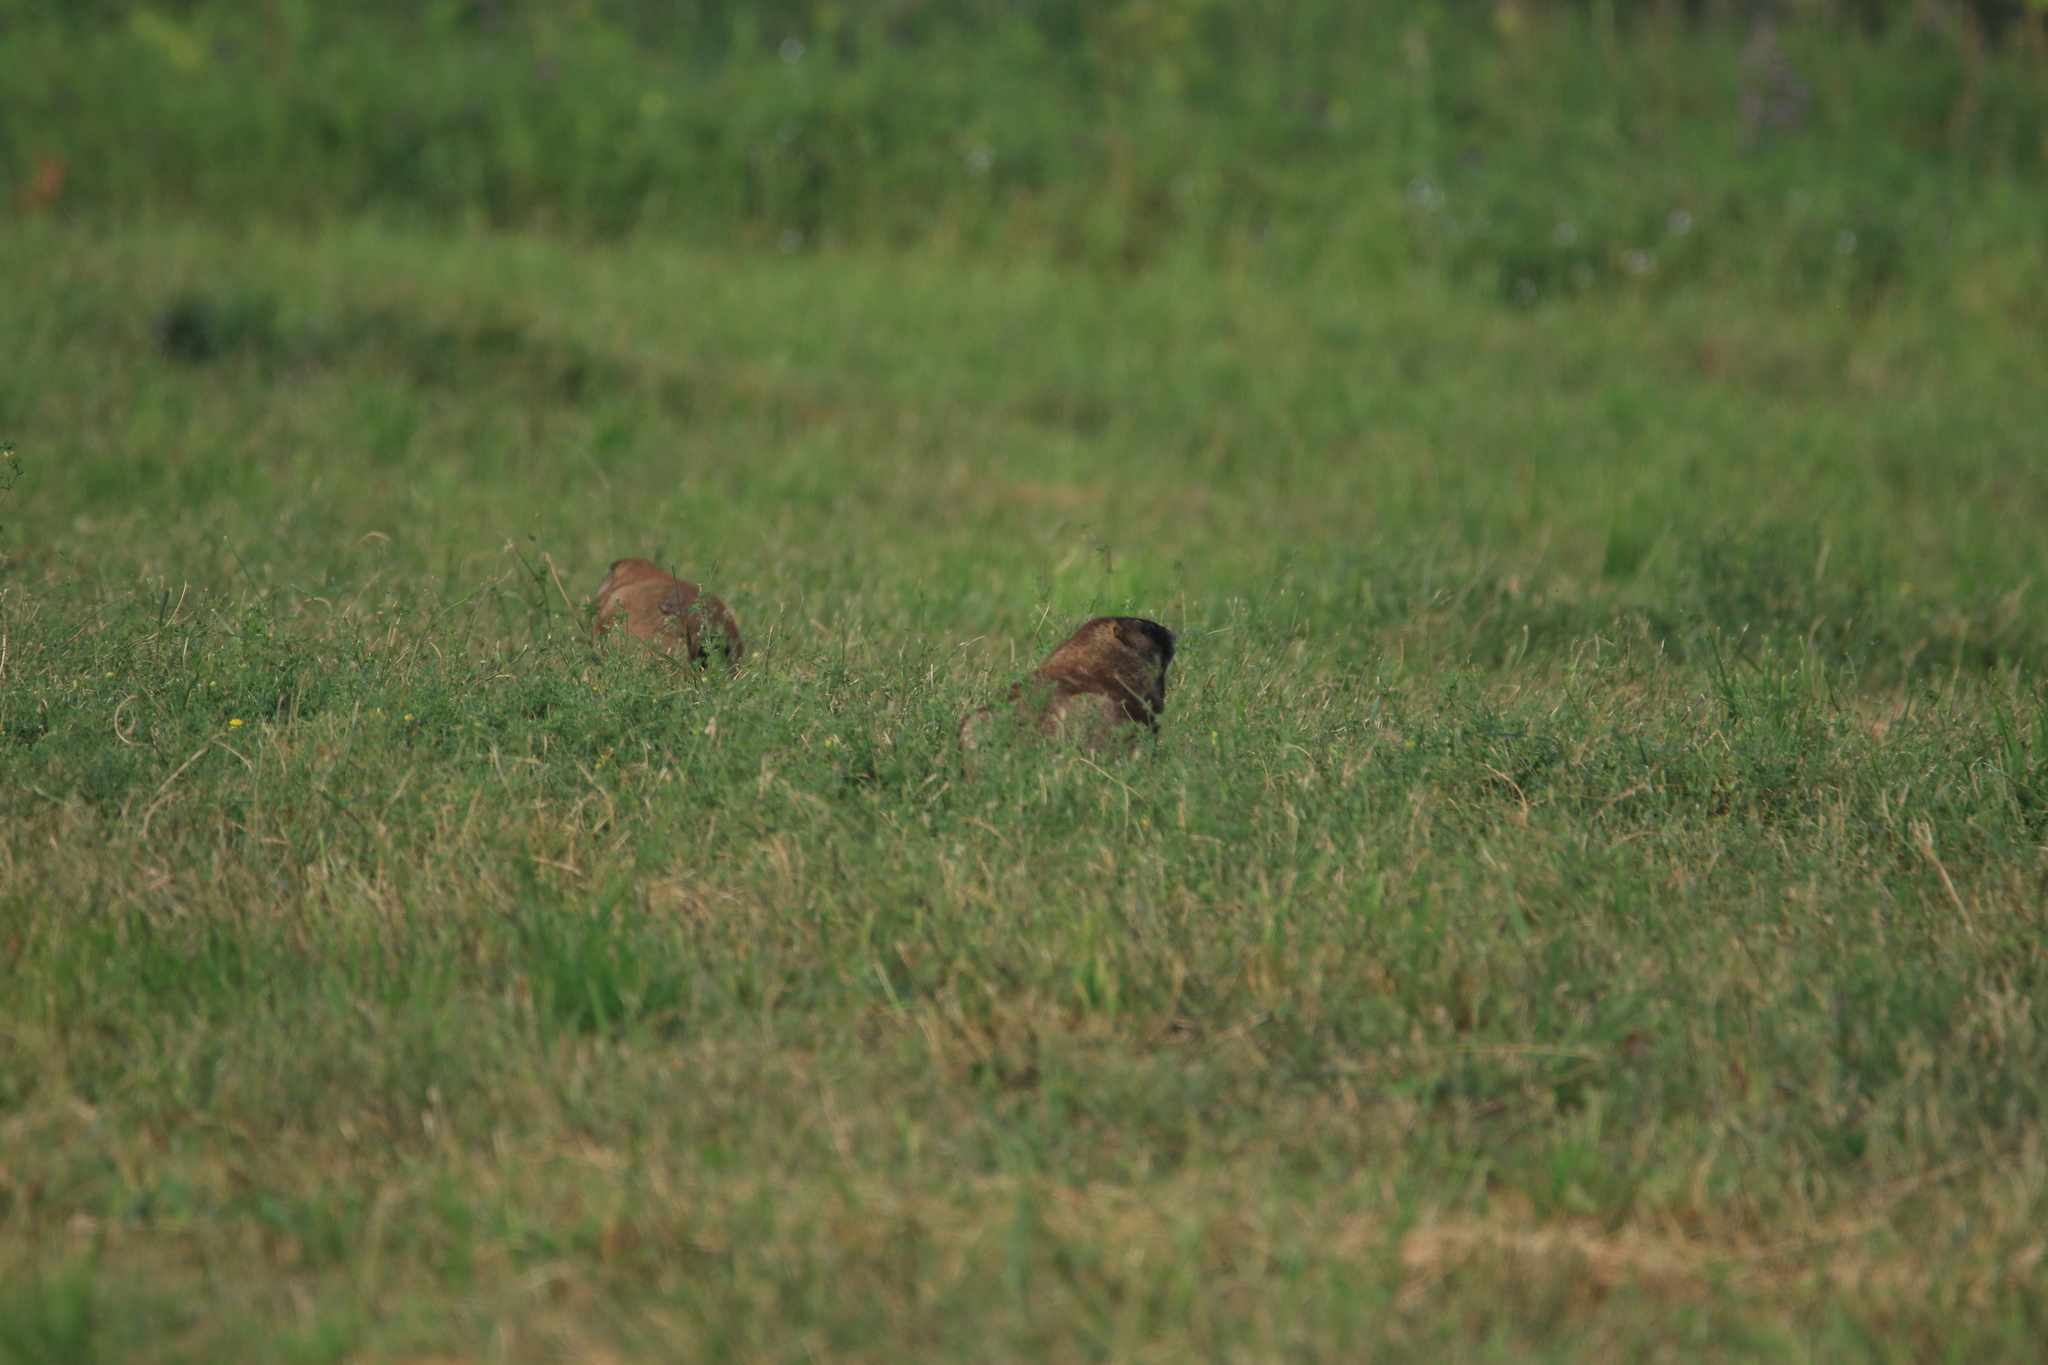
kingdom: Animalia
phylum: Chordata
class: Mammalia
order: Rodentia
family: Sciuridae
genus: Marmota
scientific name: Marmota kastschenkoi
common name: Forest steppe marmot
